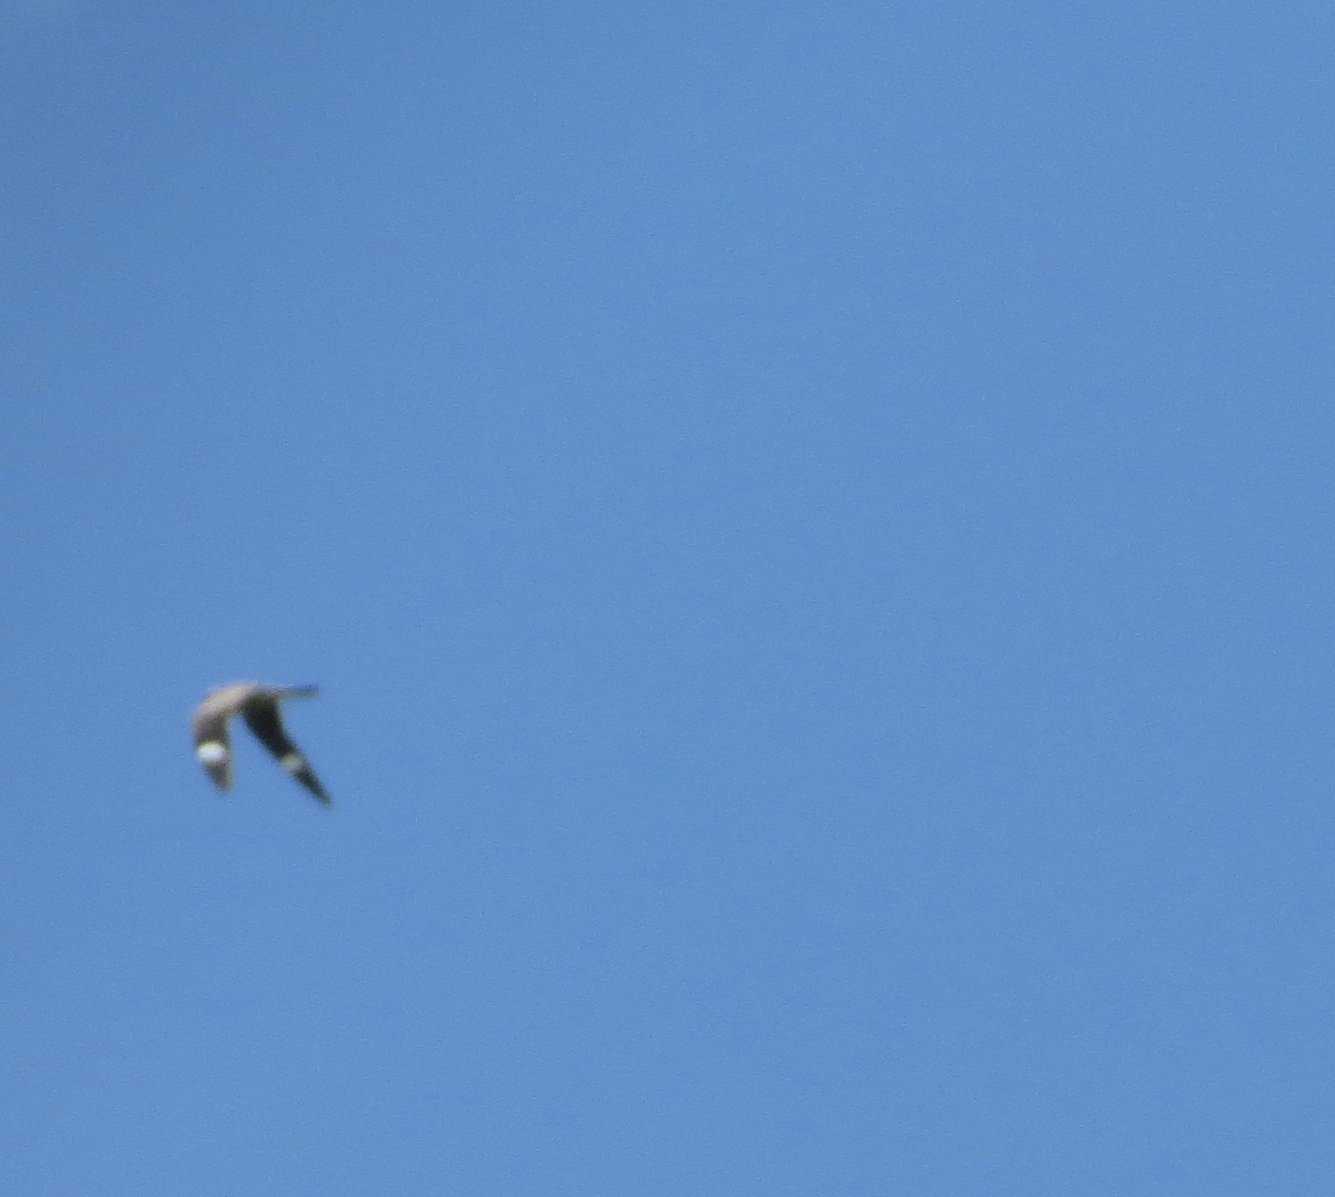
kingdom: Animalia
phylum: Chordata
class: Aves
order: Caprimulgiformes
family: Caprimulgidae
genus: Chordeiles
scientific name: Chordeiles minor
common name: Common nighthawk
